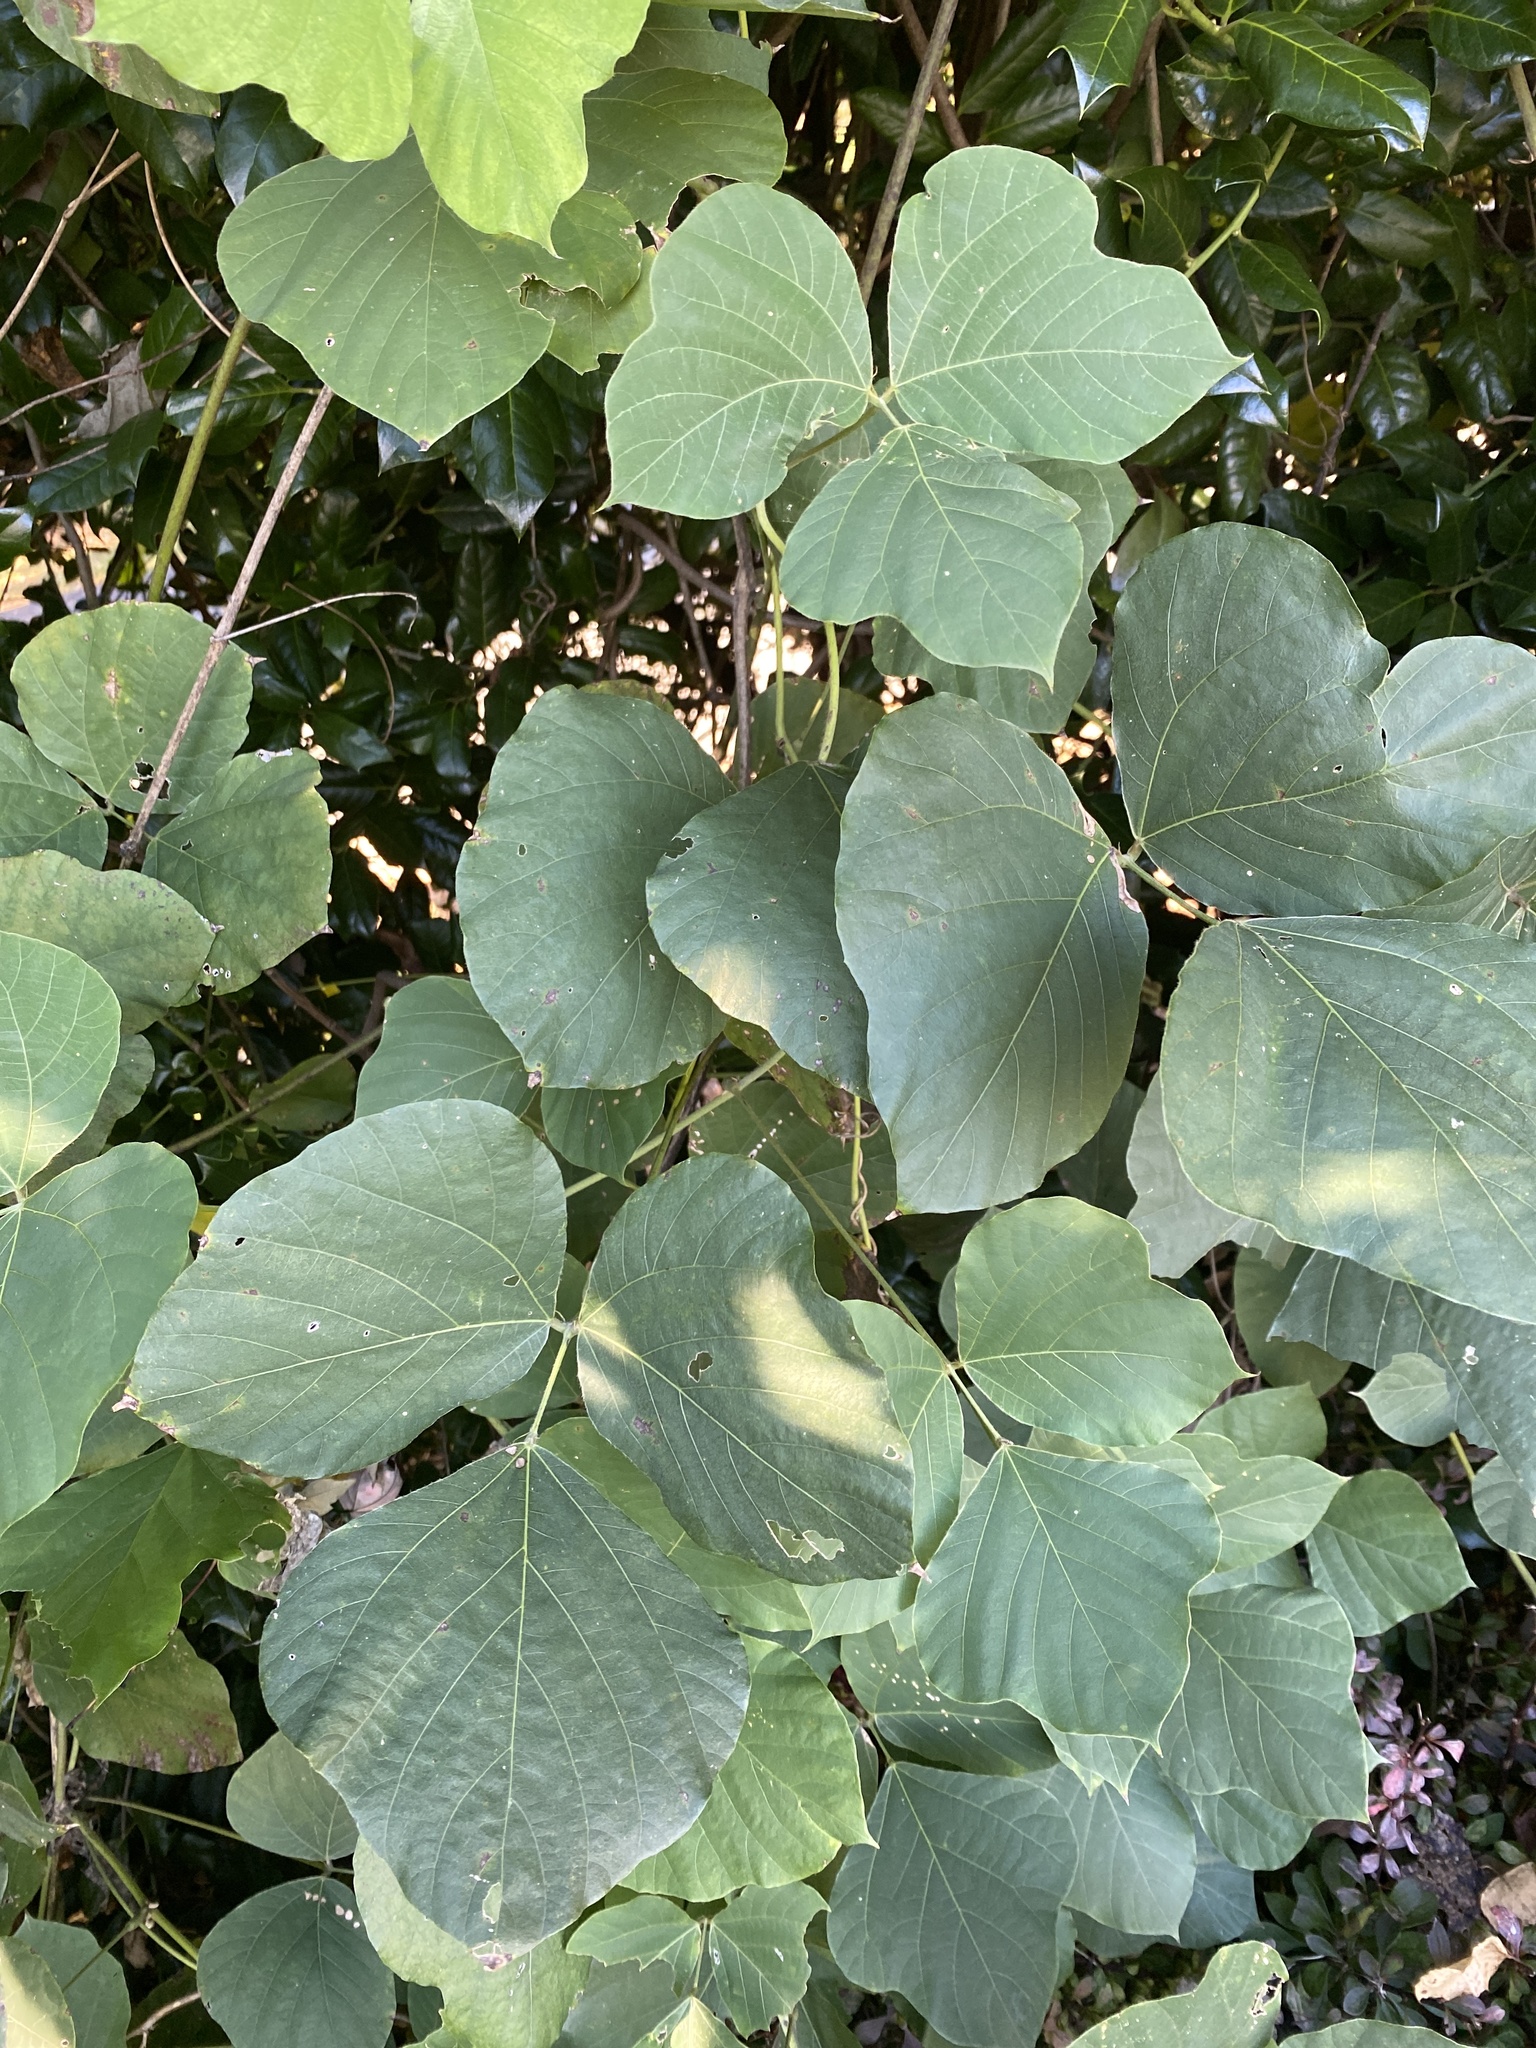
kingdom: Plantae
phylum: Tracheophyta
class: Magnoliopsida
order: Fabales
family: Fabaceae
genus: Pueraria
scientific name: Pueraria montana
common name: Kudzu
